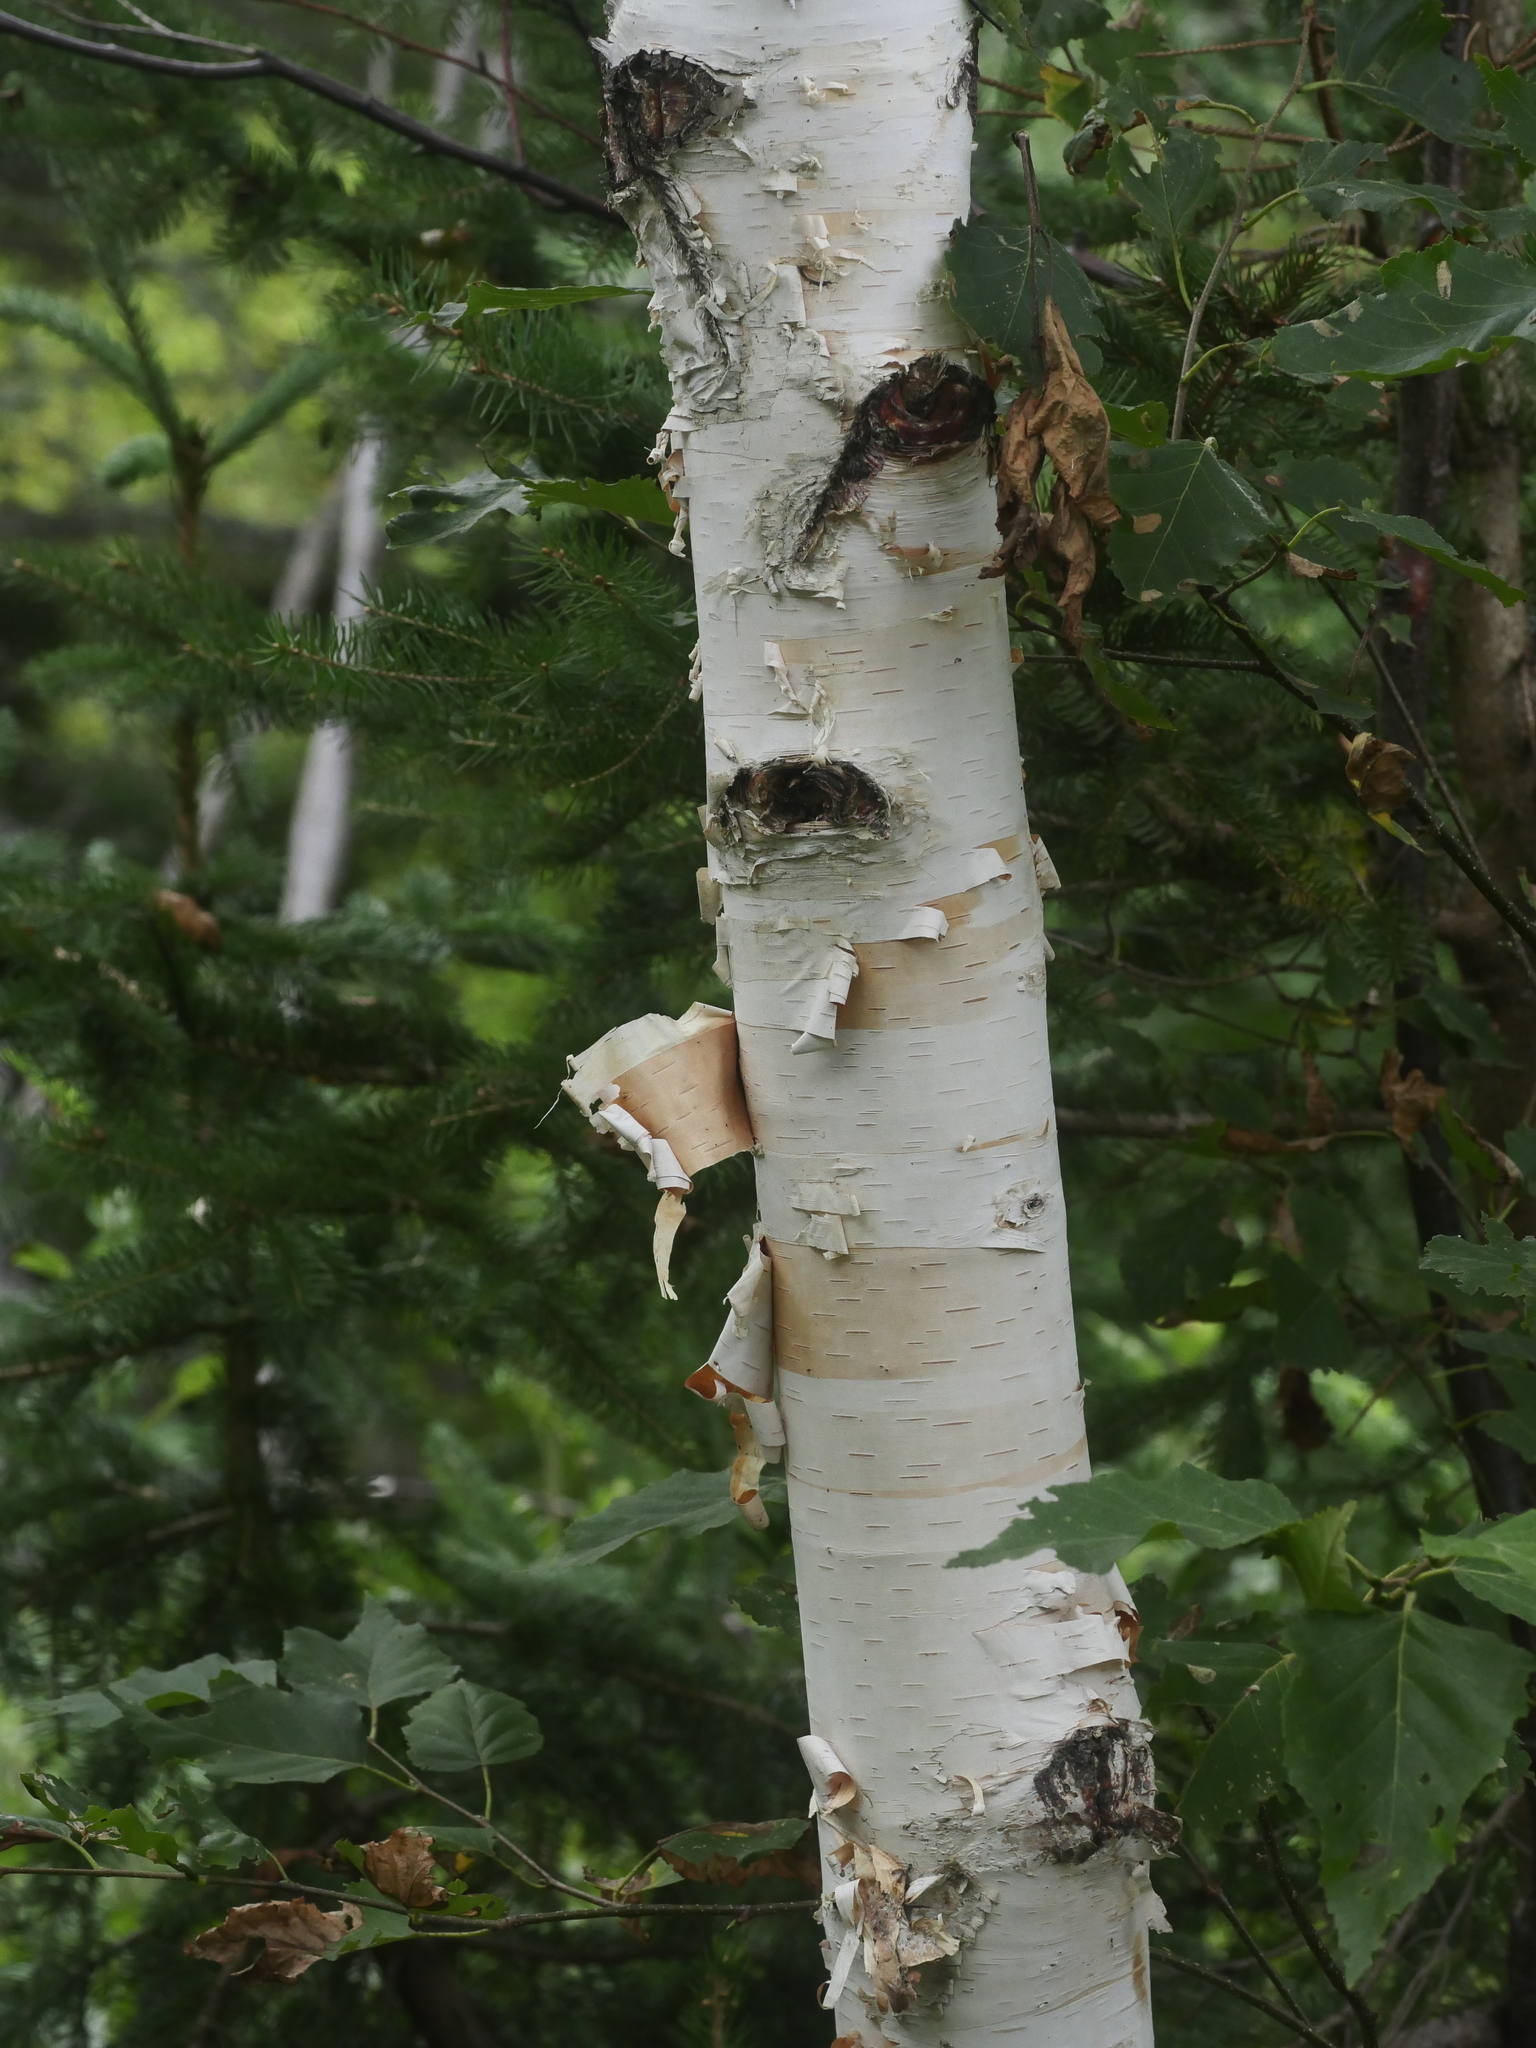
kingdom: Plantae
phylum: Tracheophyta
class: Magnoliopsida
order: Fagales
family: Betulaceae
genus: Betula
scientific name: Betula papyrifera
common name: Paper birch
